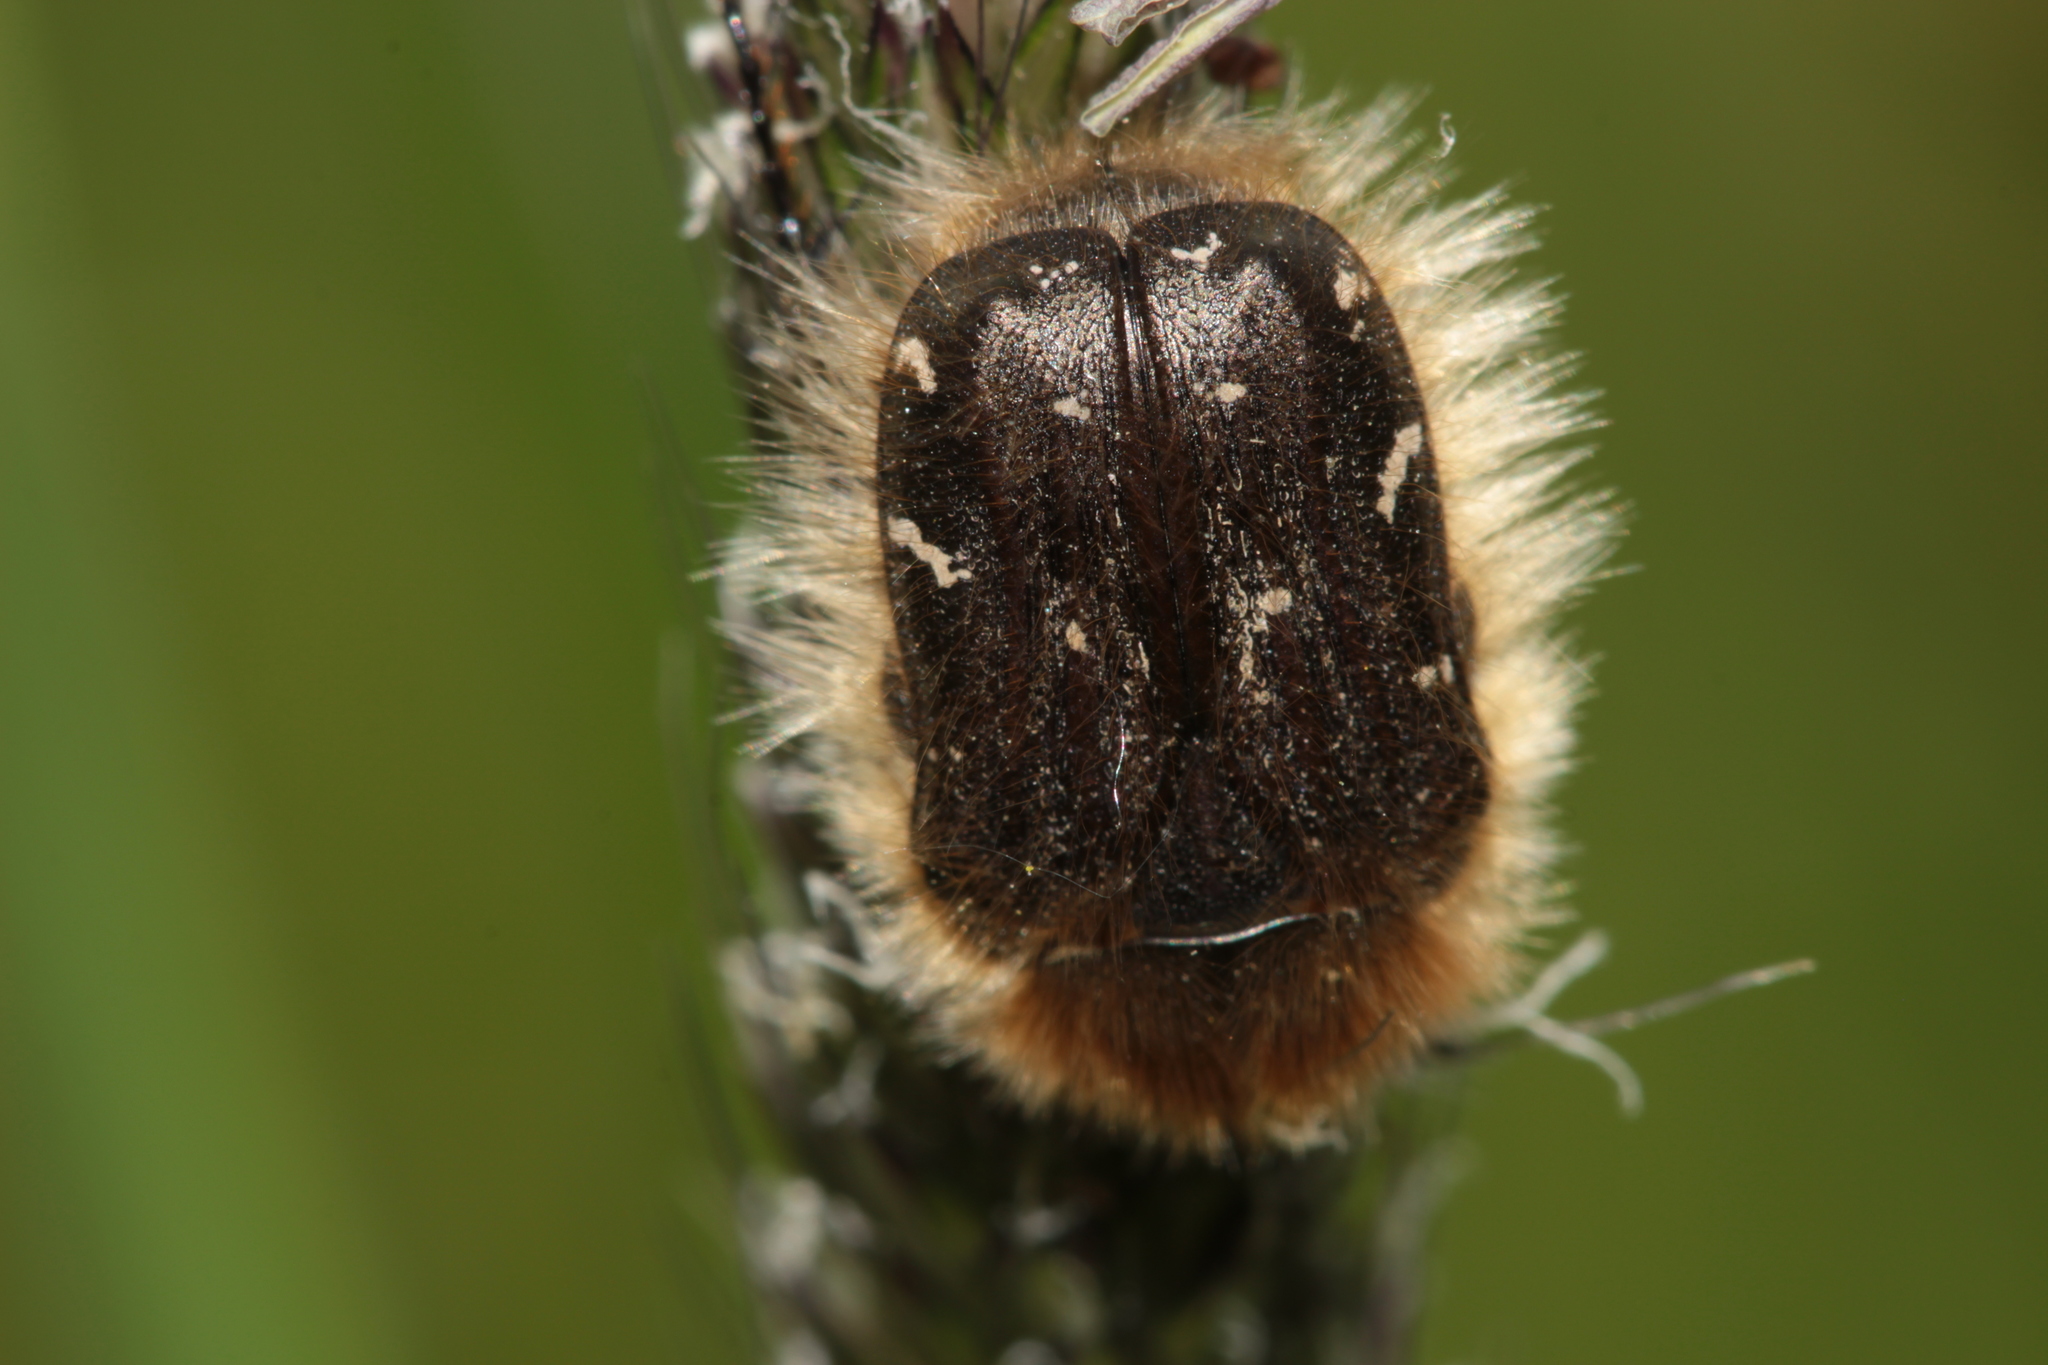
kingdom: Animalia
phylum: Arthropoda
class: Insecta
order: Coleoptera
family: Scarabaeidae
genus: Tropinota
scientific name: Tropinota hirta
